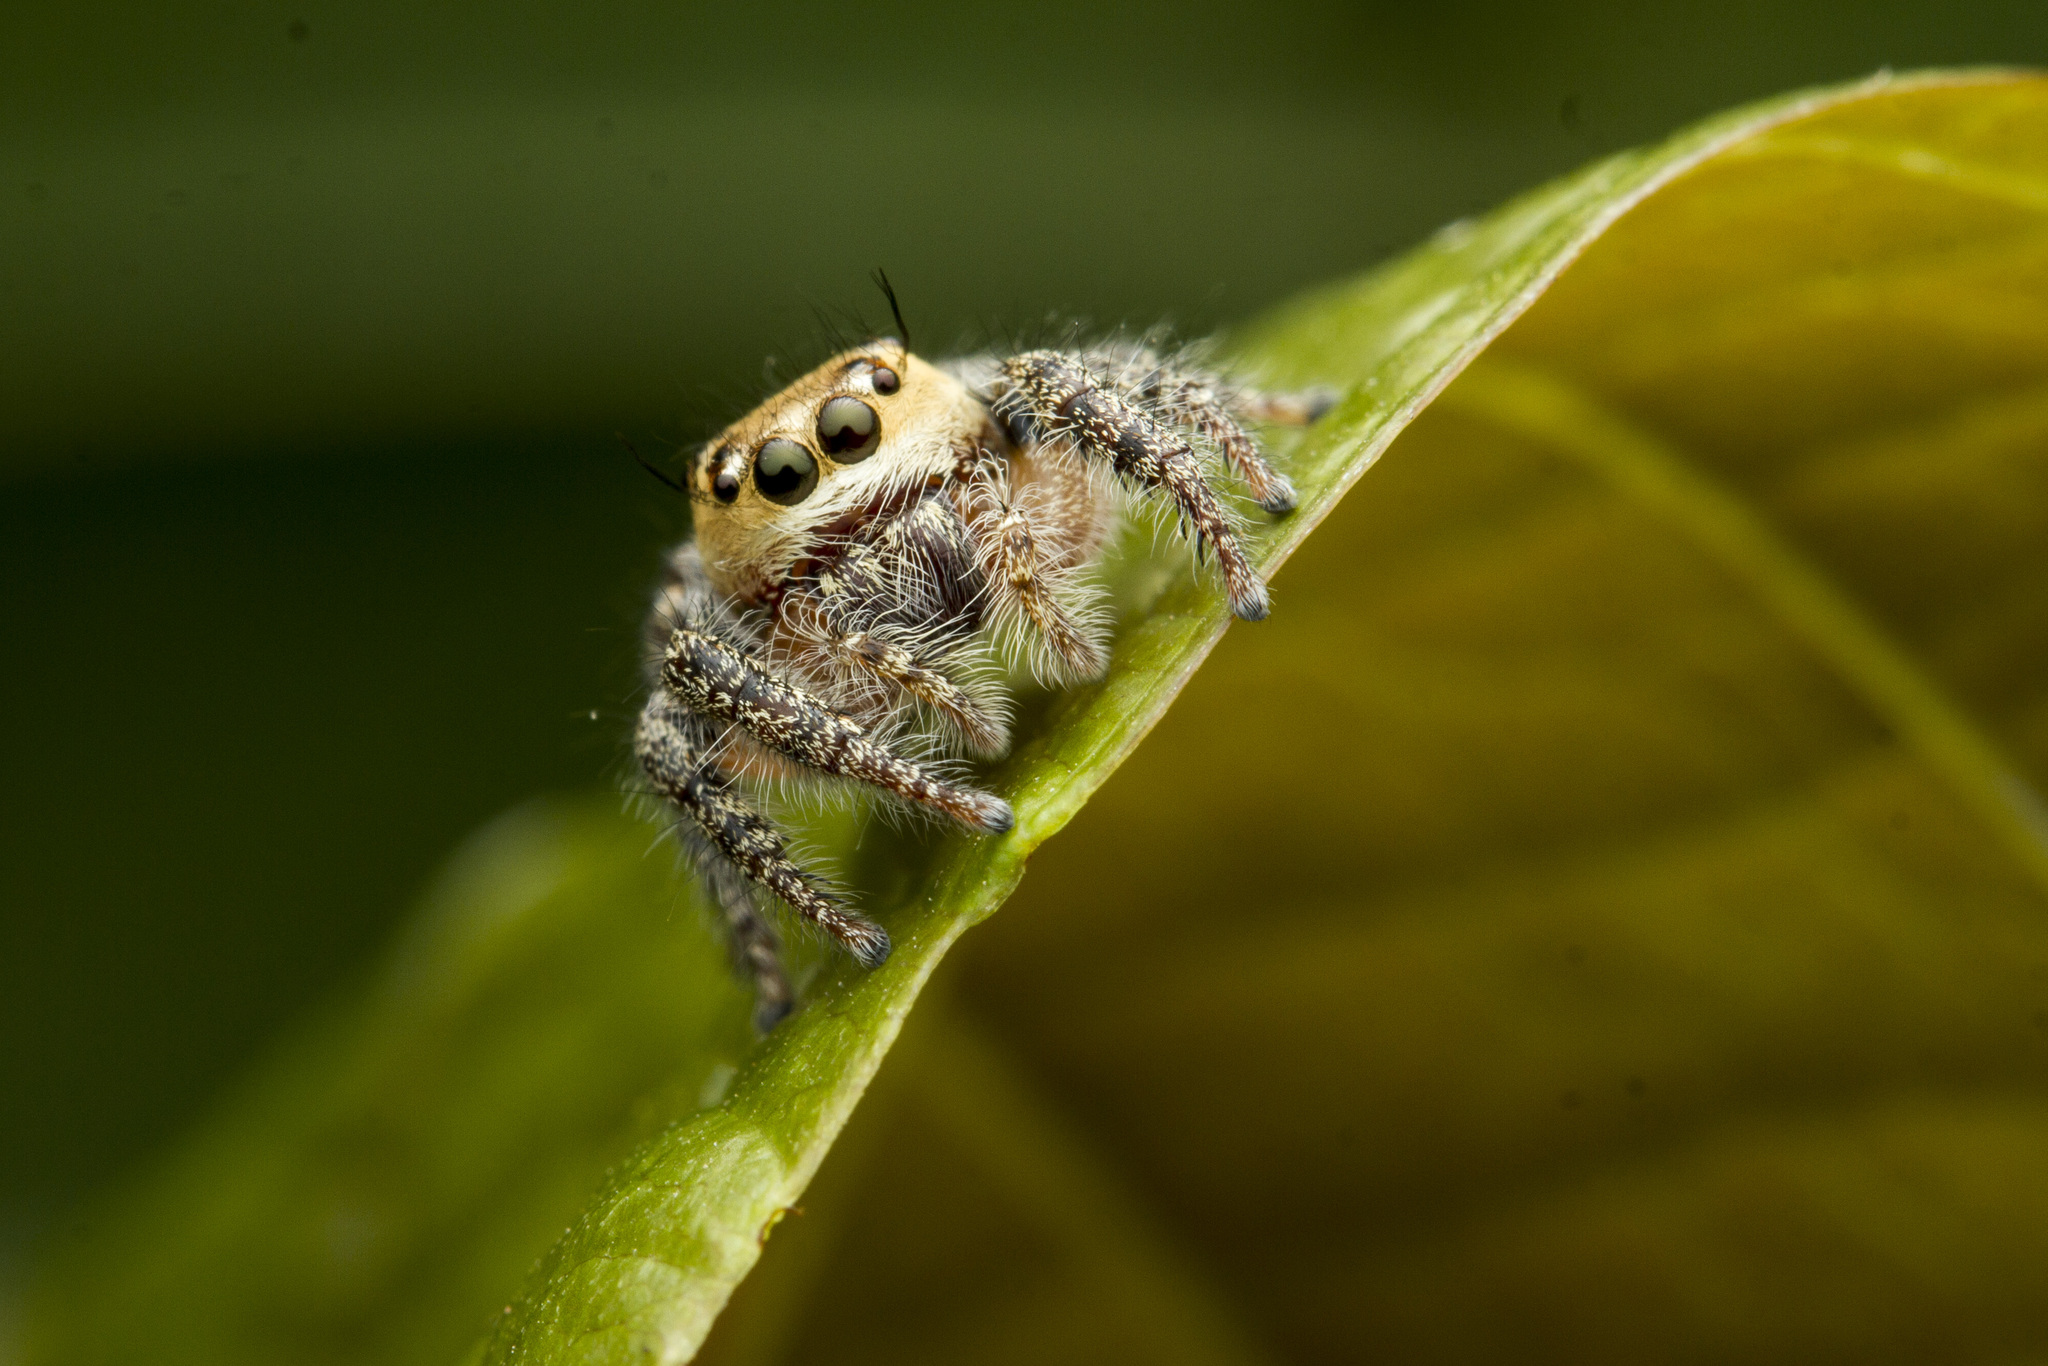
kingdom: Animalia
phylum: Arthropoda
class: Arachnida
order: Araneae
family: Salticidae
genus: Hyllus
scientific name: Hyllus semicupreus
